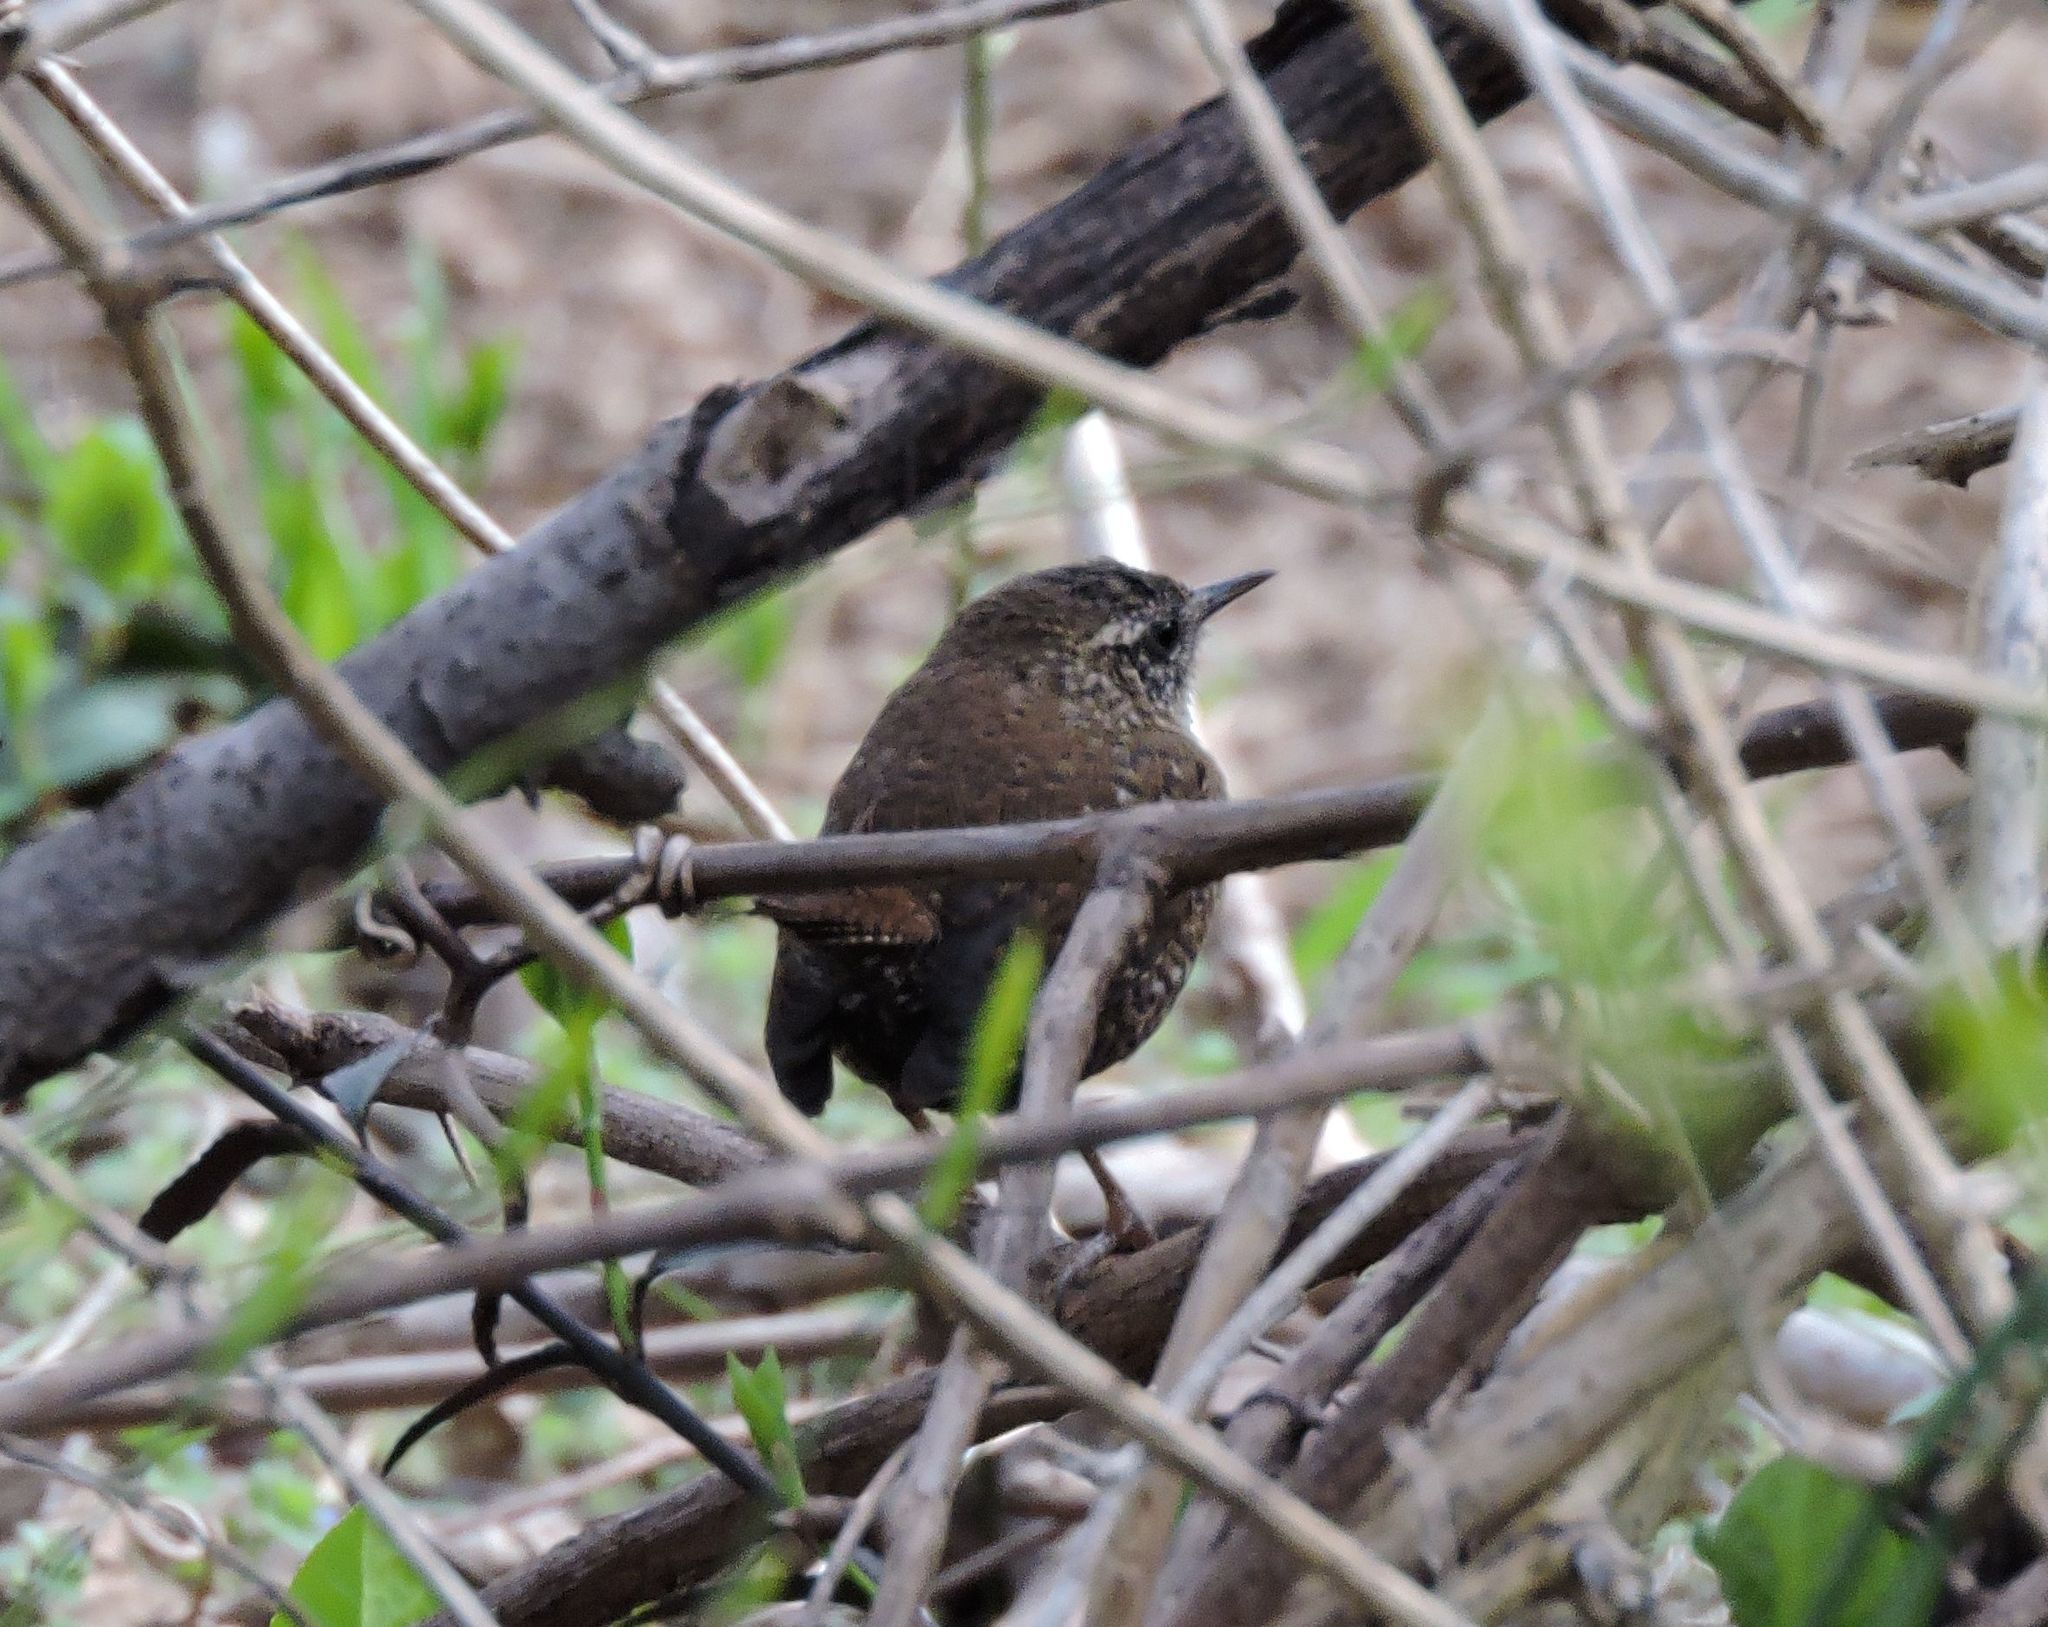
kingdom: Animalia
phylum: Chordata
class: Aves
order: Passeriformes
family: Troglodytidae
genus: Troglodytes
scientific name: Troglodytes hiemalis
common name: Winter wren
